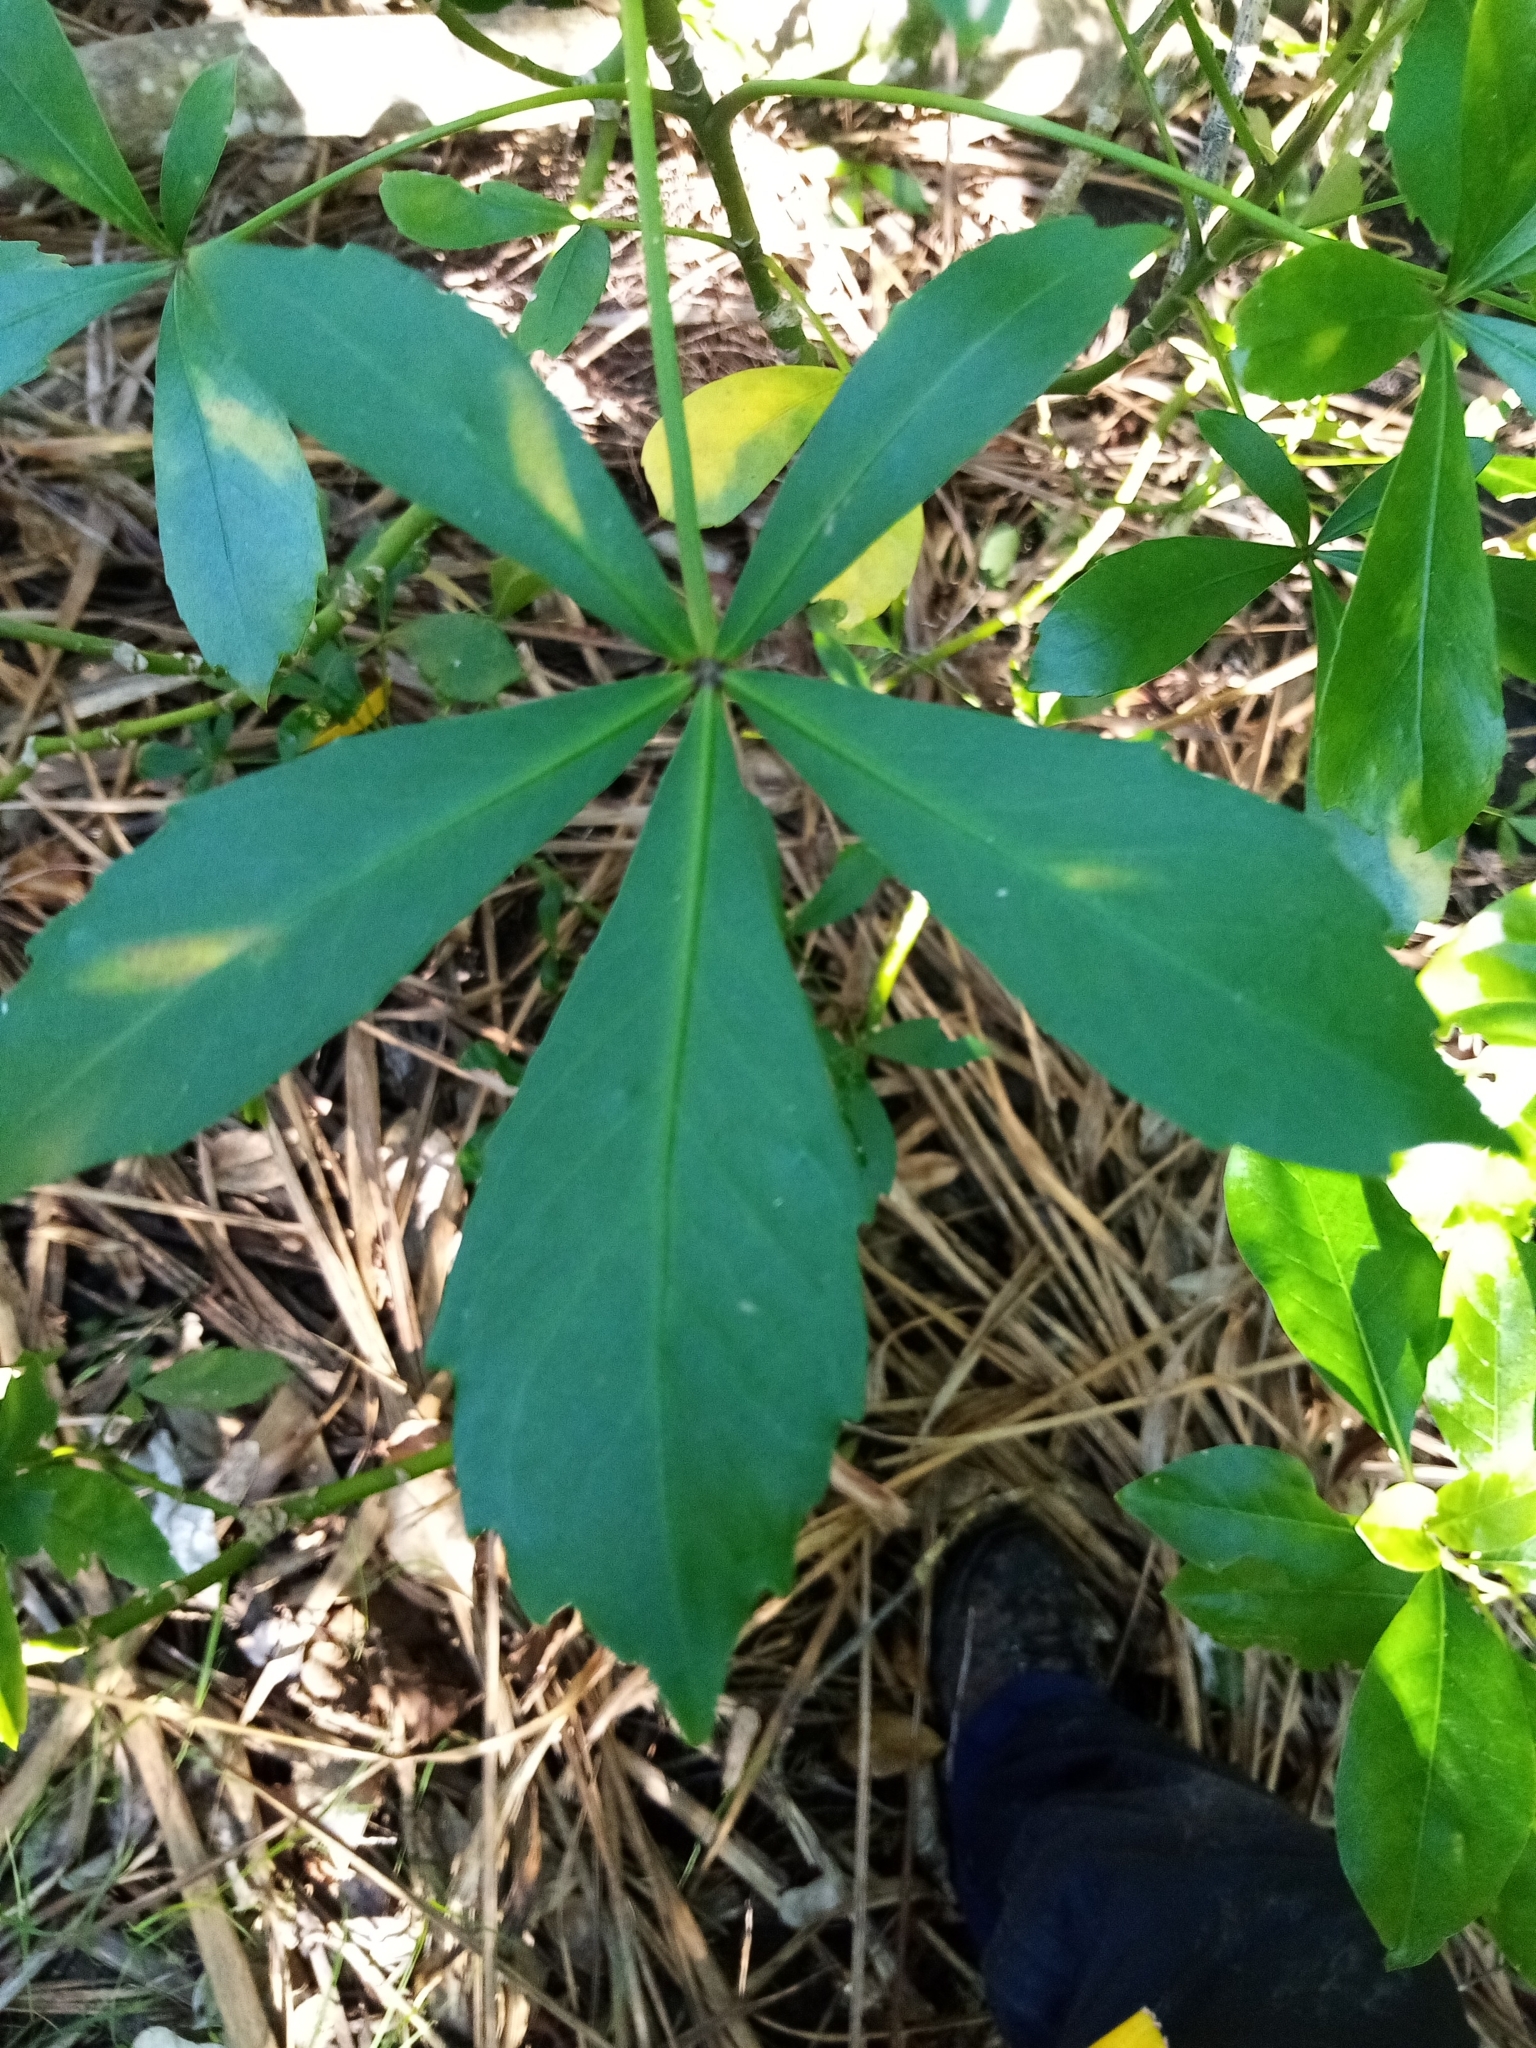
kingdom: Plantae
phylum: Tracheophyta
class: Magnoliopsida
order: Apiales
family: Araliaceae
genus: Pseudopanax
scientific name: Pseudopanax lessonii
